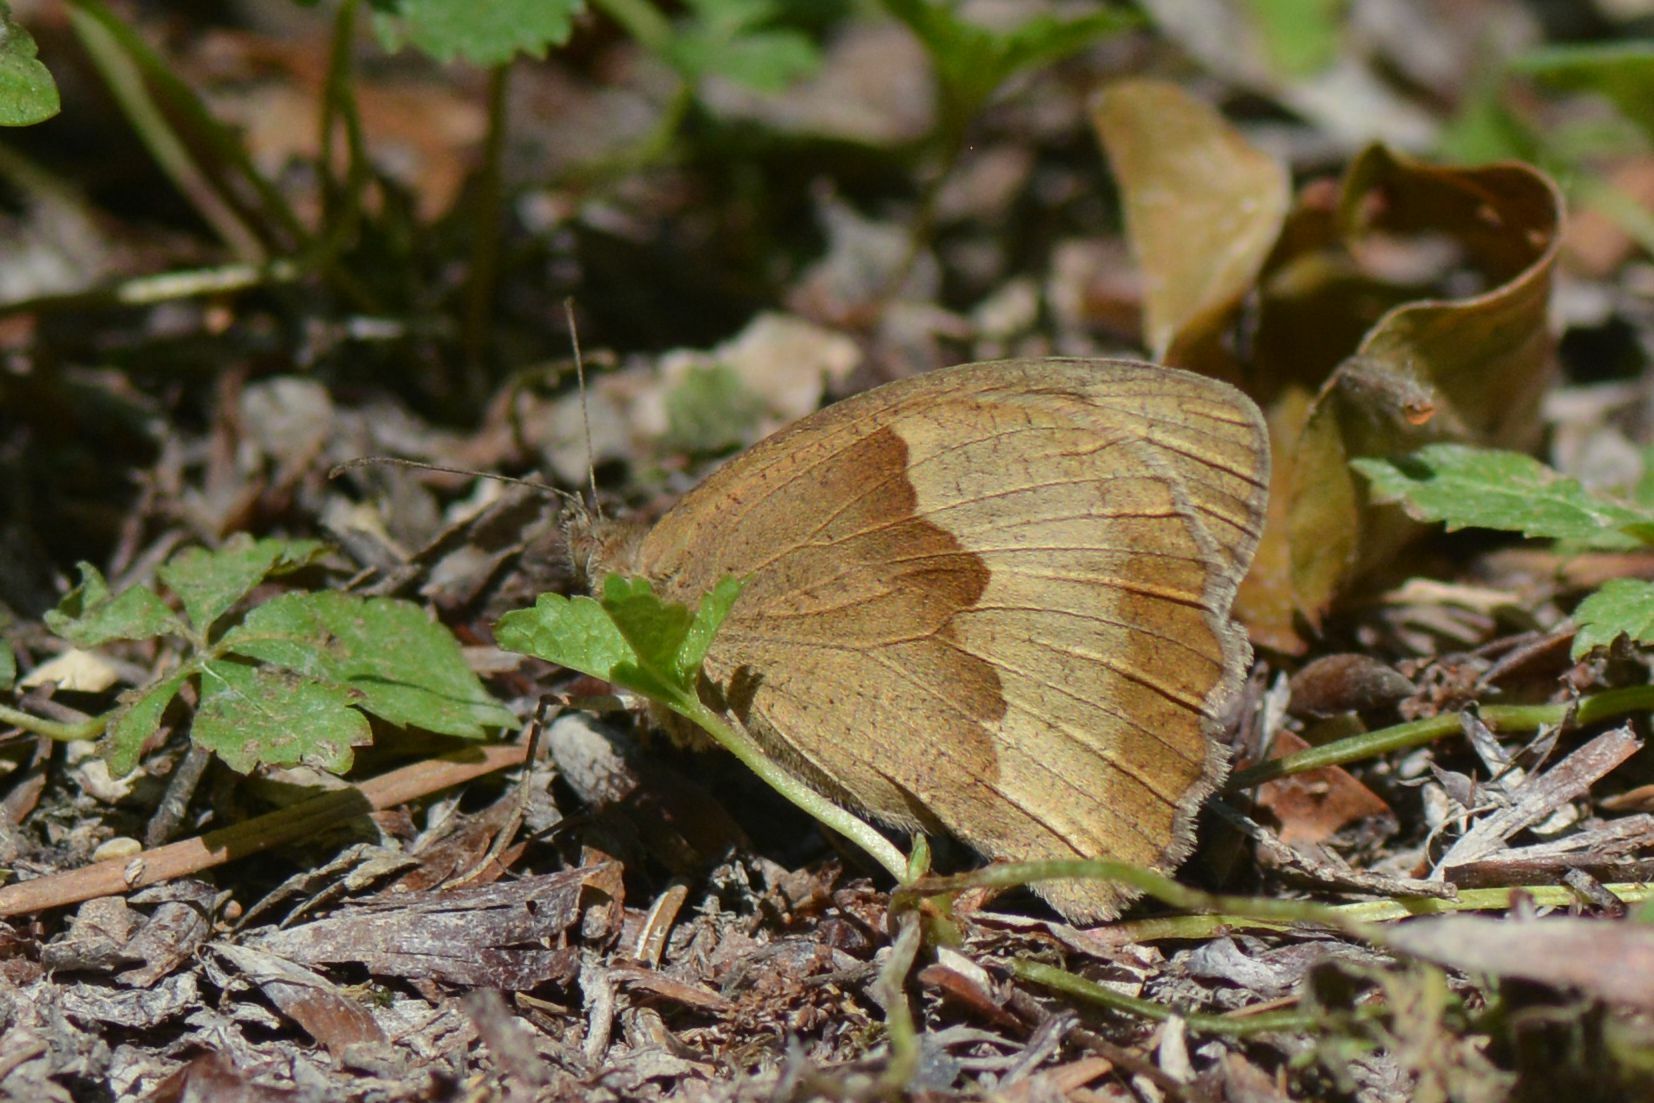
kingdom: Animalia
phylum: Arthropoda
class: Insecta
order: Lepidoptera
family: Nymphalidae
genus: Maniola
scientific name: Maniola jurtina
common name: Meadow brown
